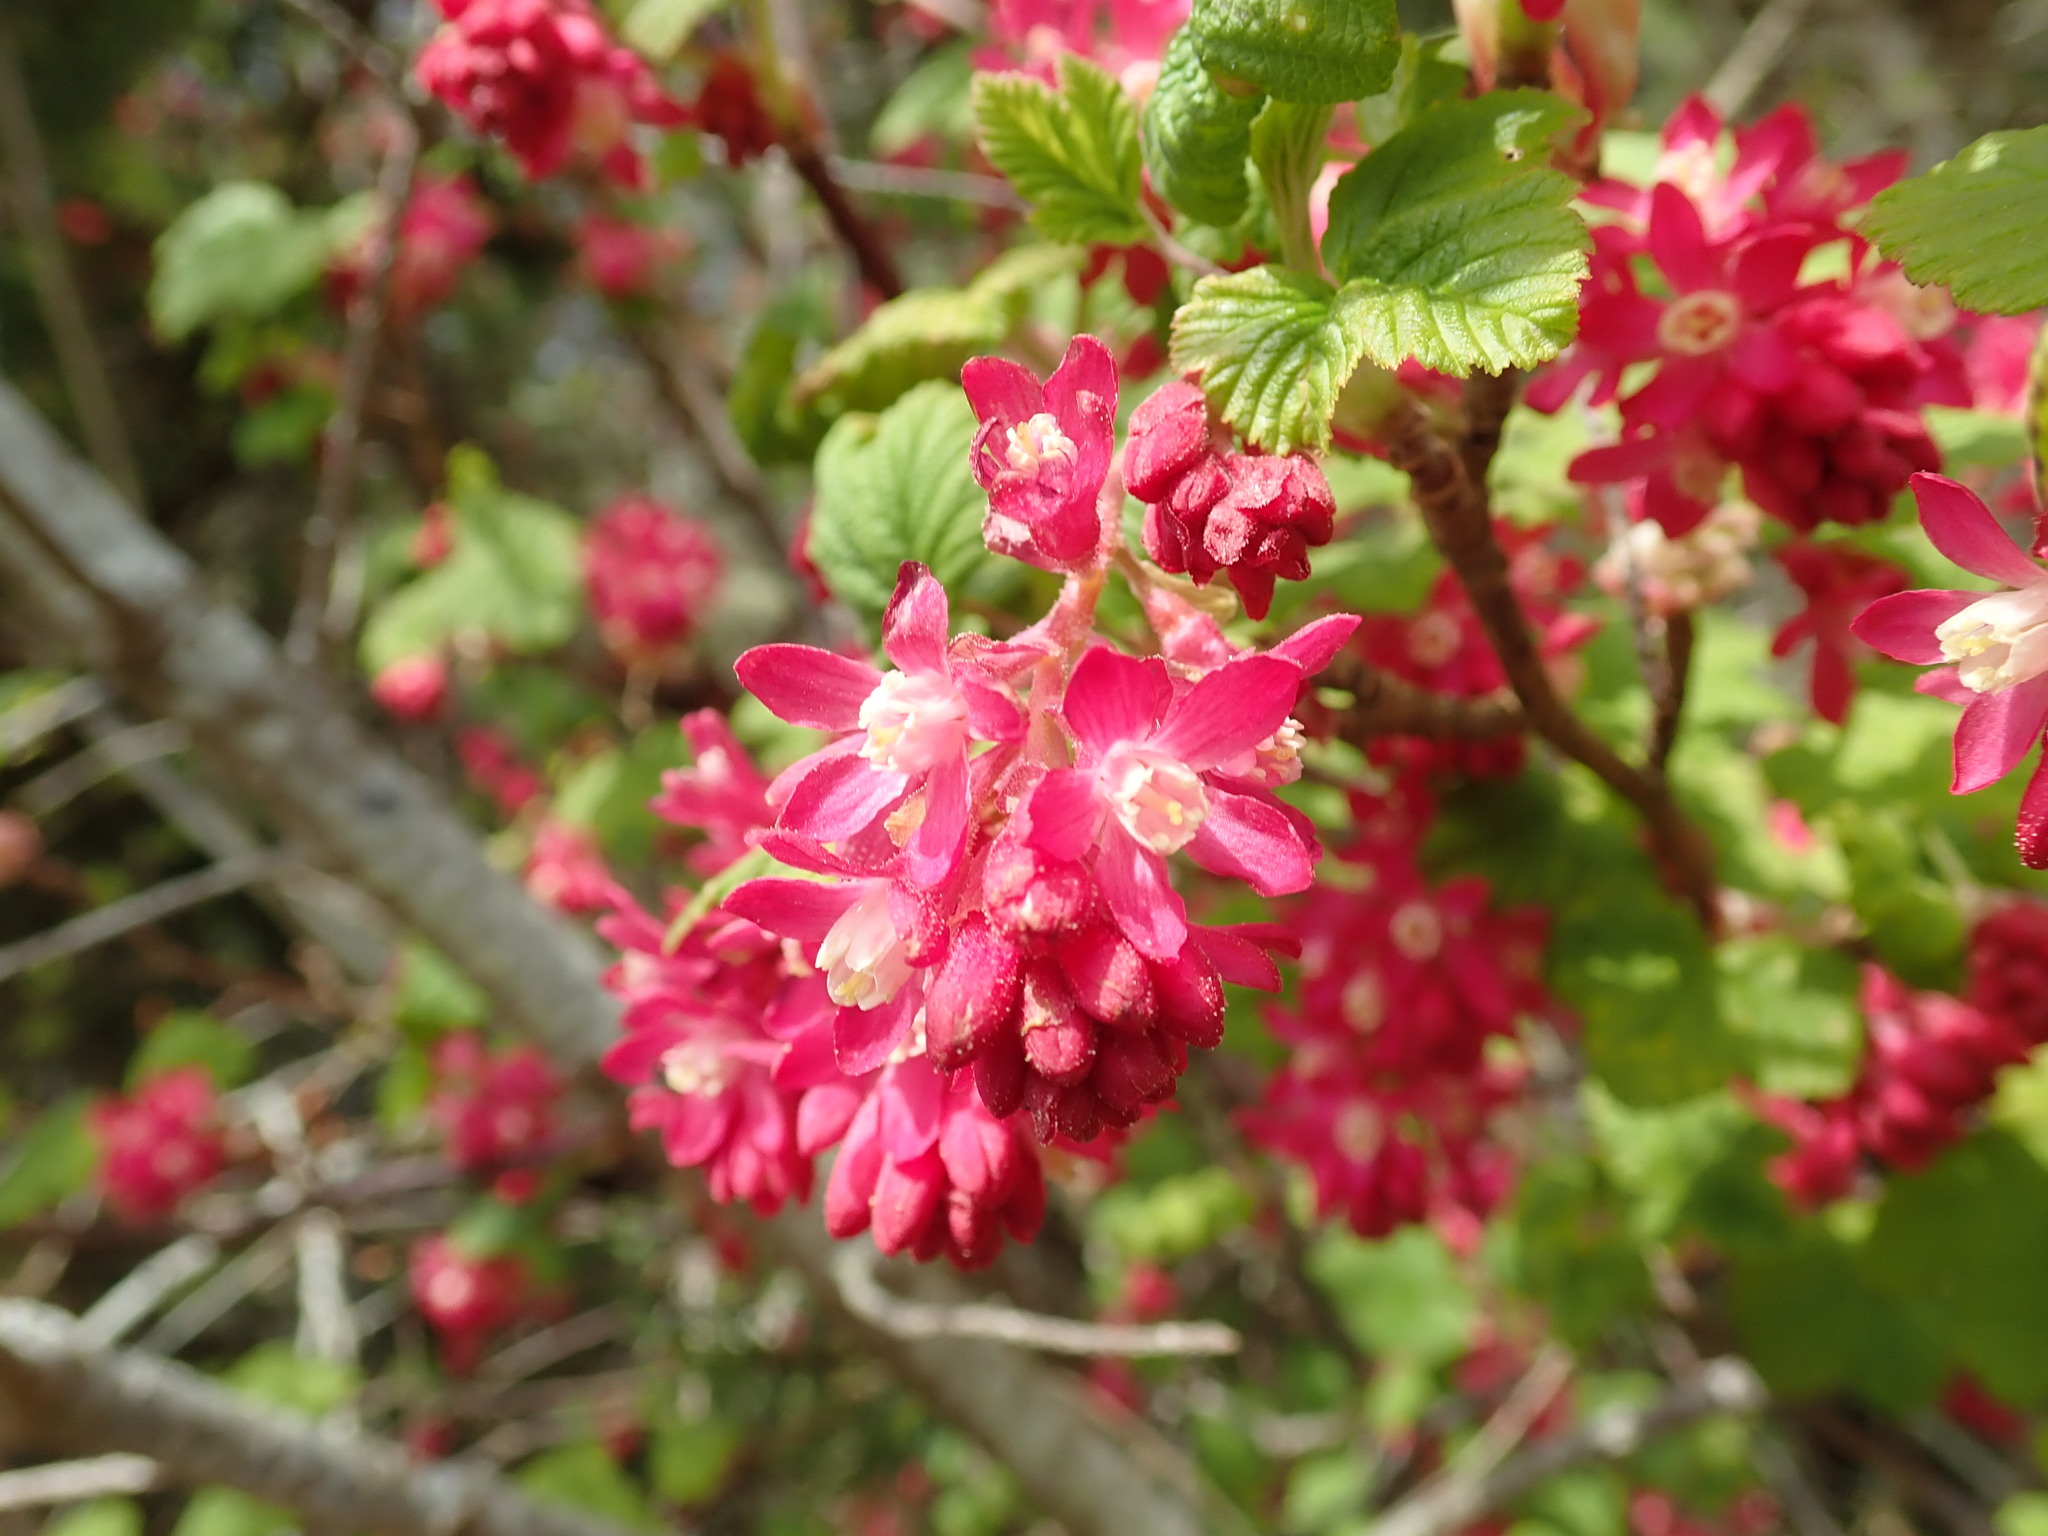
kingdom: Plantae
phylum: Tracheophyta
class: Magnoliopsida
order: Saxifragales
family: Grossulariaceae
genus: Ribes
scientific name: Ribes sanguineum
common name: Flowering currant
